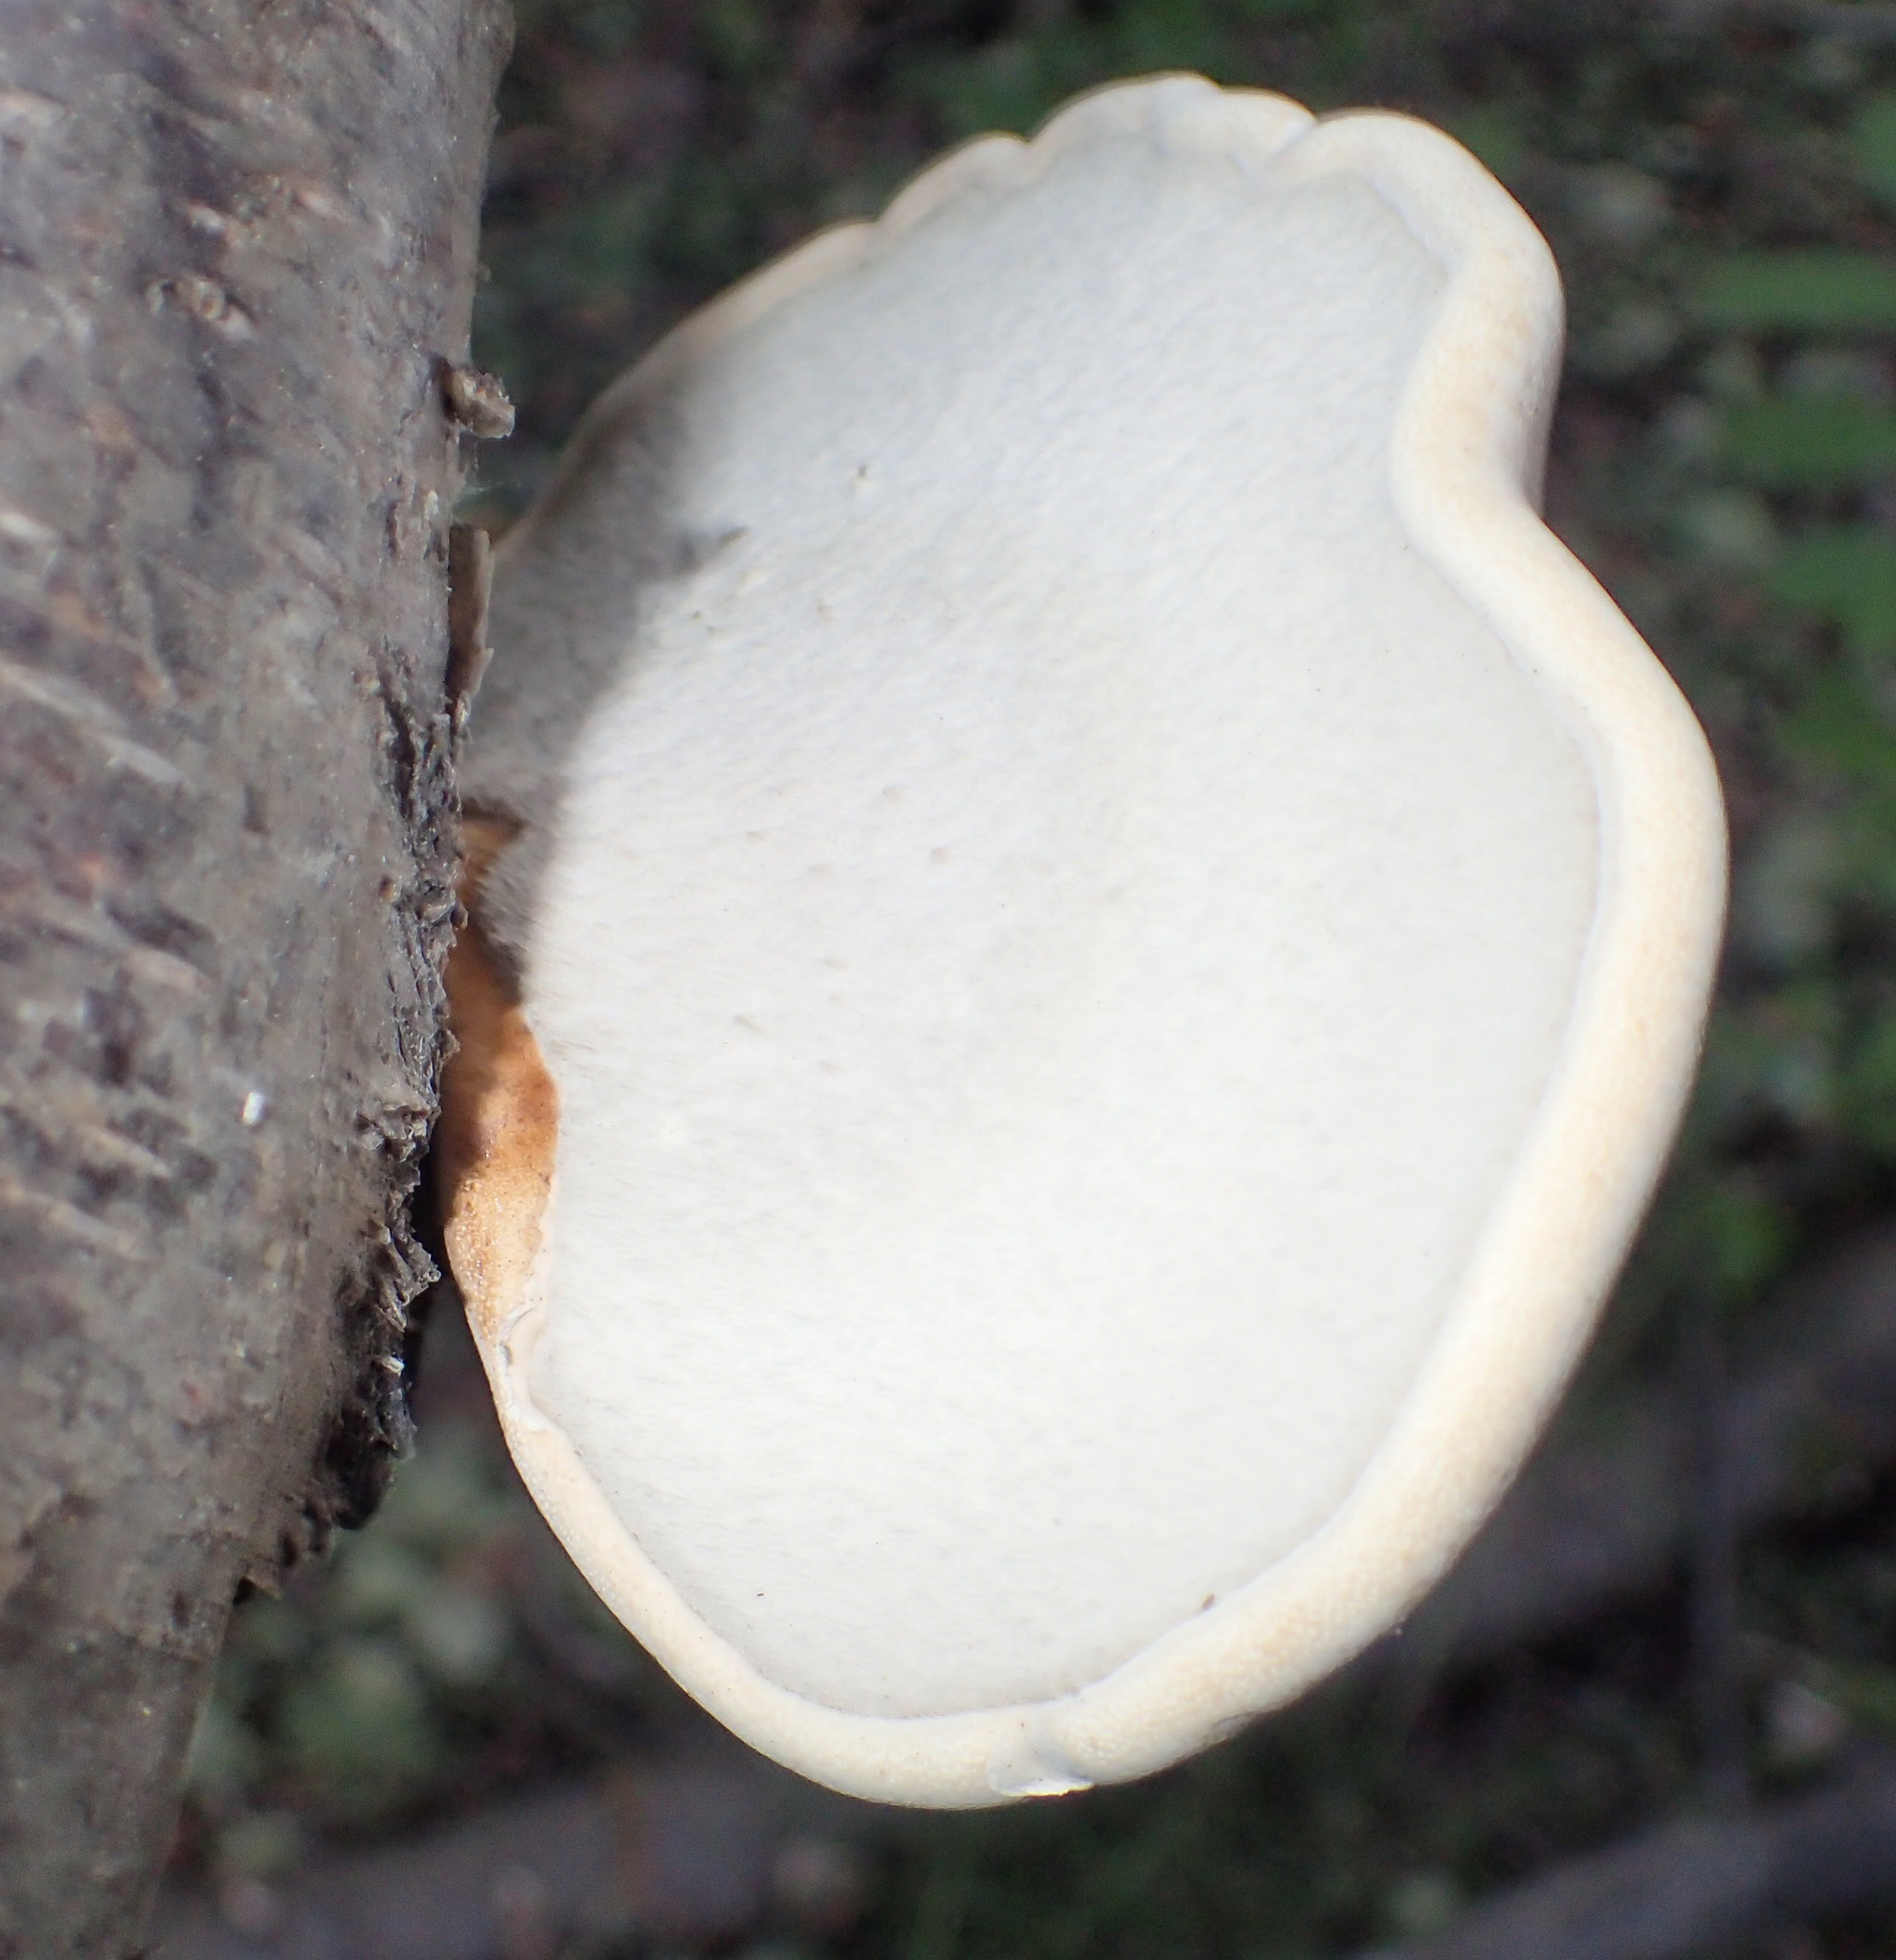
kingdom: Fungi
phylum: Basidiomycota
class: Agaricomycetes
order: Polyporales
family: Fomitopsidaceae
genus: Fomitopsis
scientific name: Fomitopsis betulina
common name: Birch polypore
